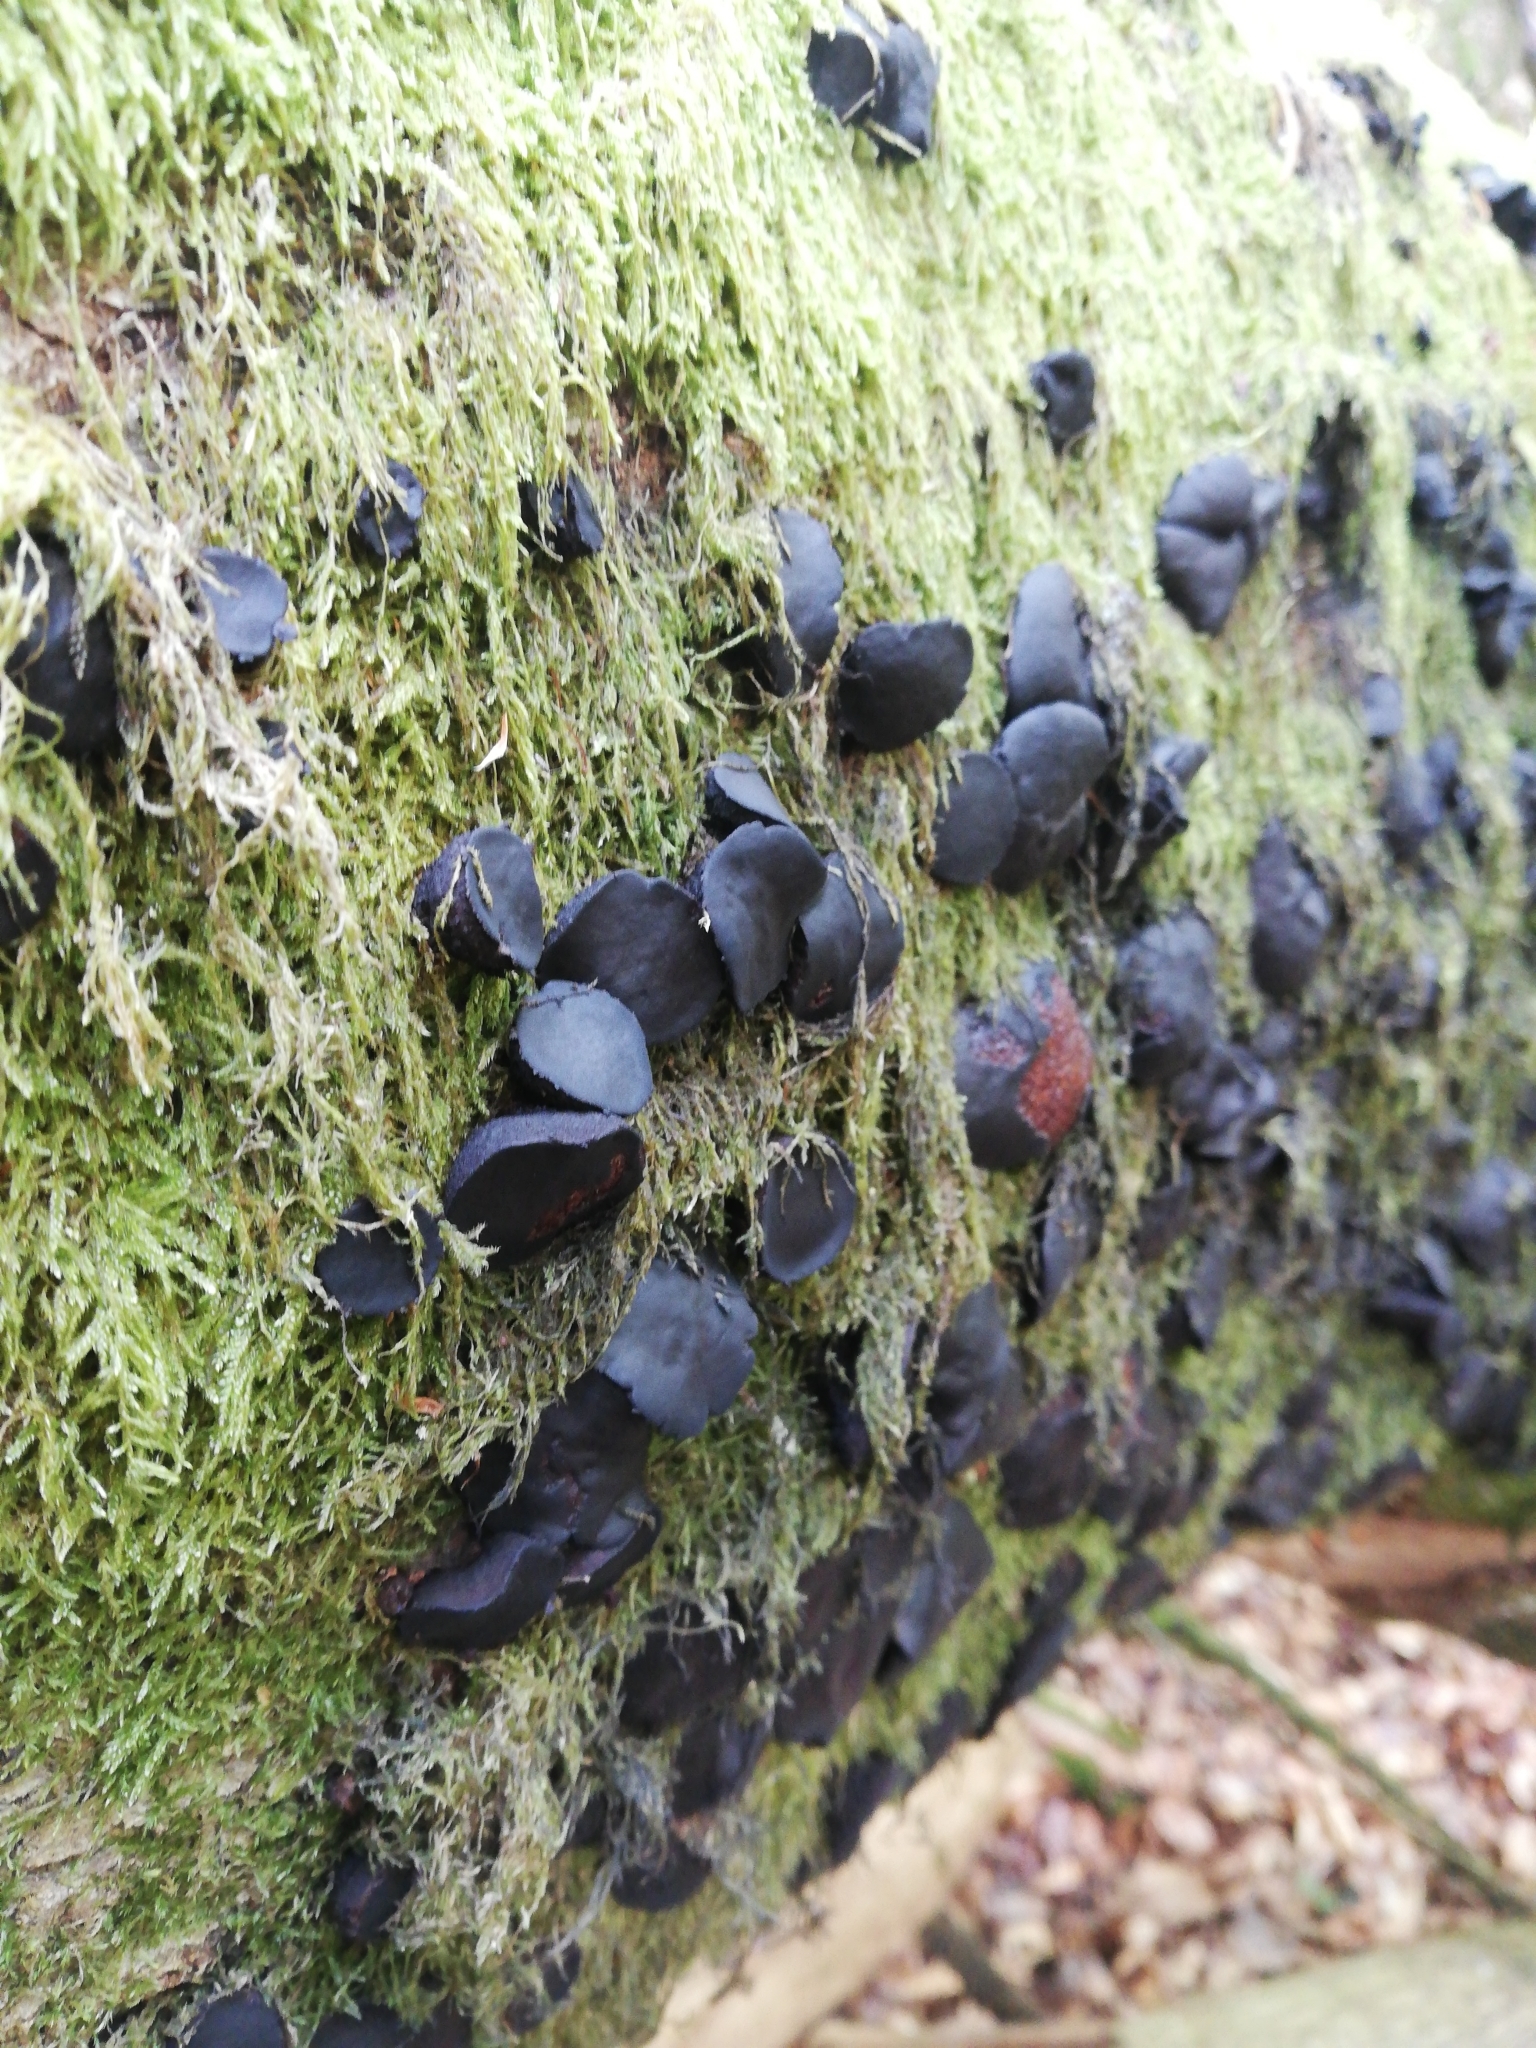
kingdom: Fungi
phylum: Ascomycota
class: Leotiomycetes
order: Phacidiales
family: Phacidiaceae
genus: Bulgaria
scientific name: Bulgaria inquinans
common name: Black bulgar
